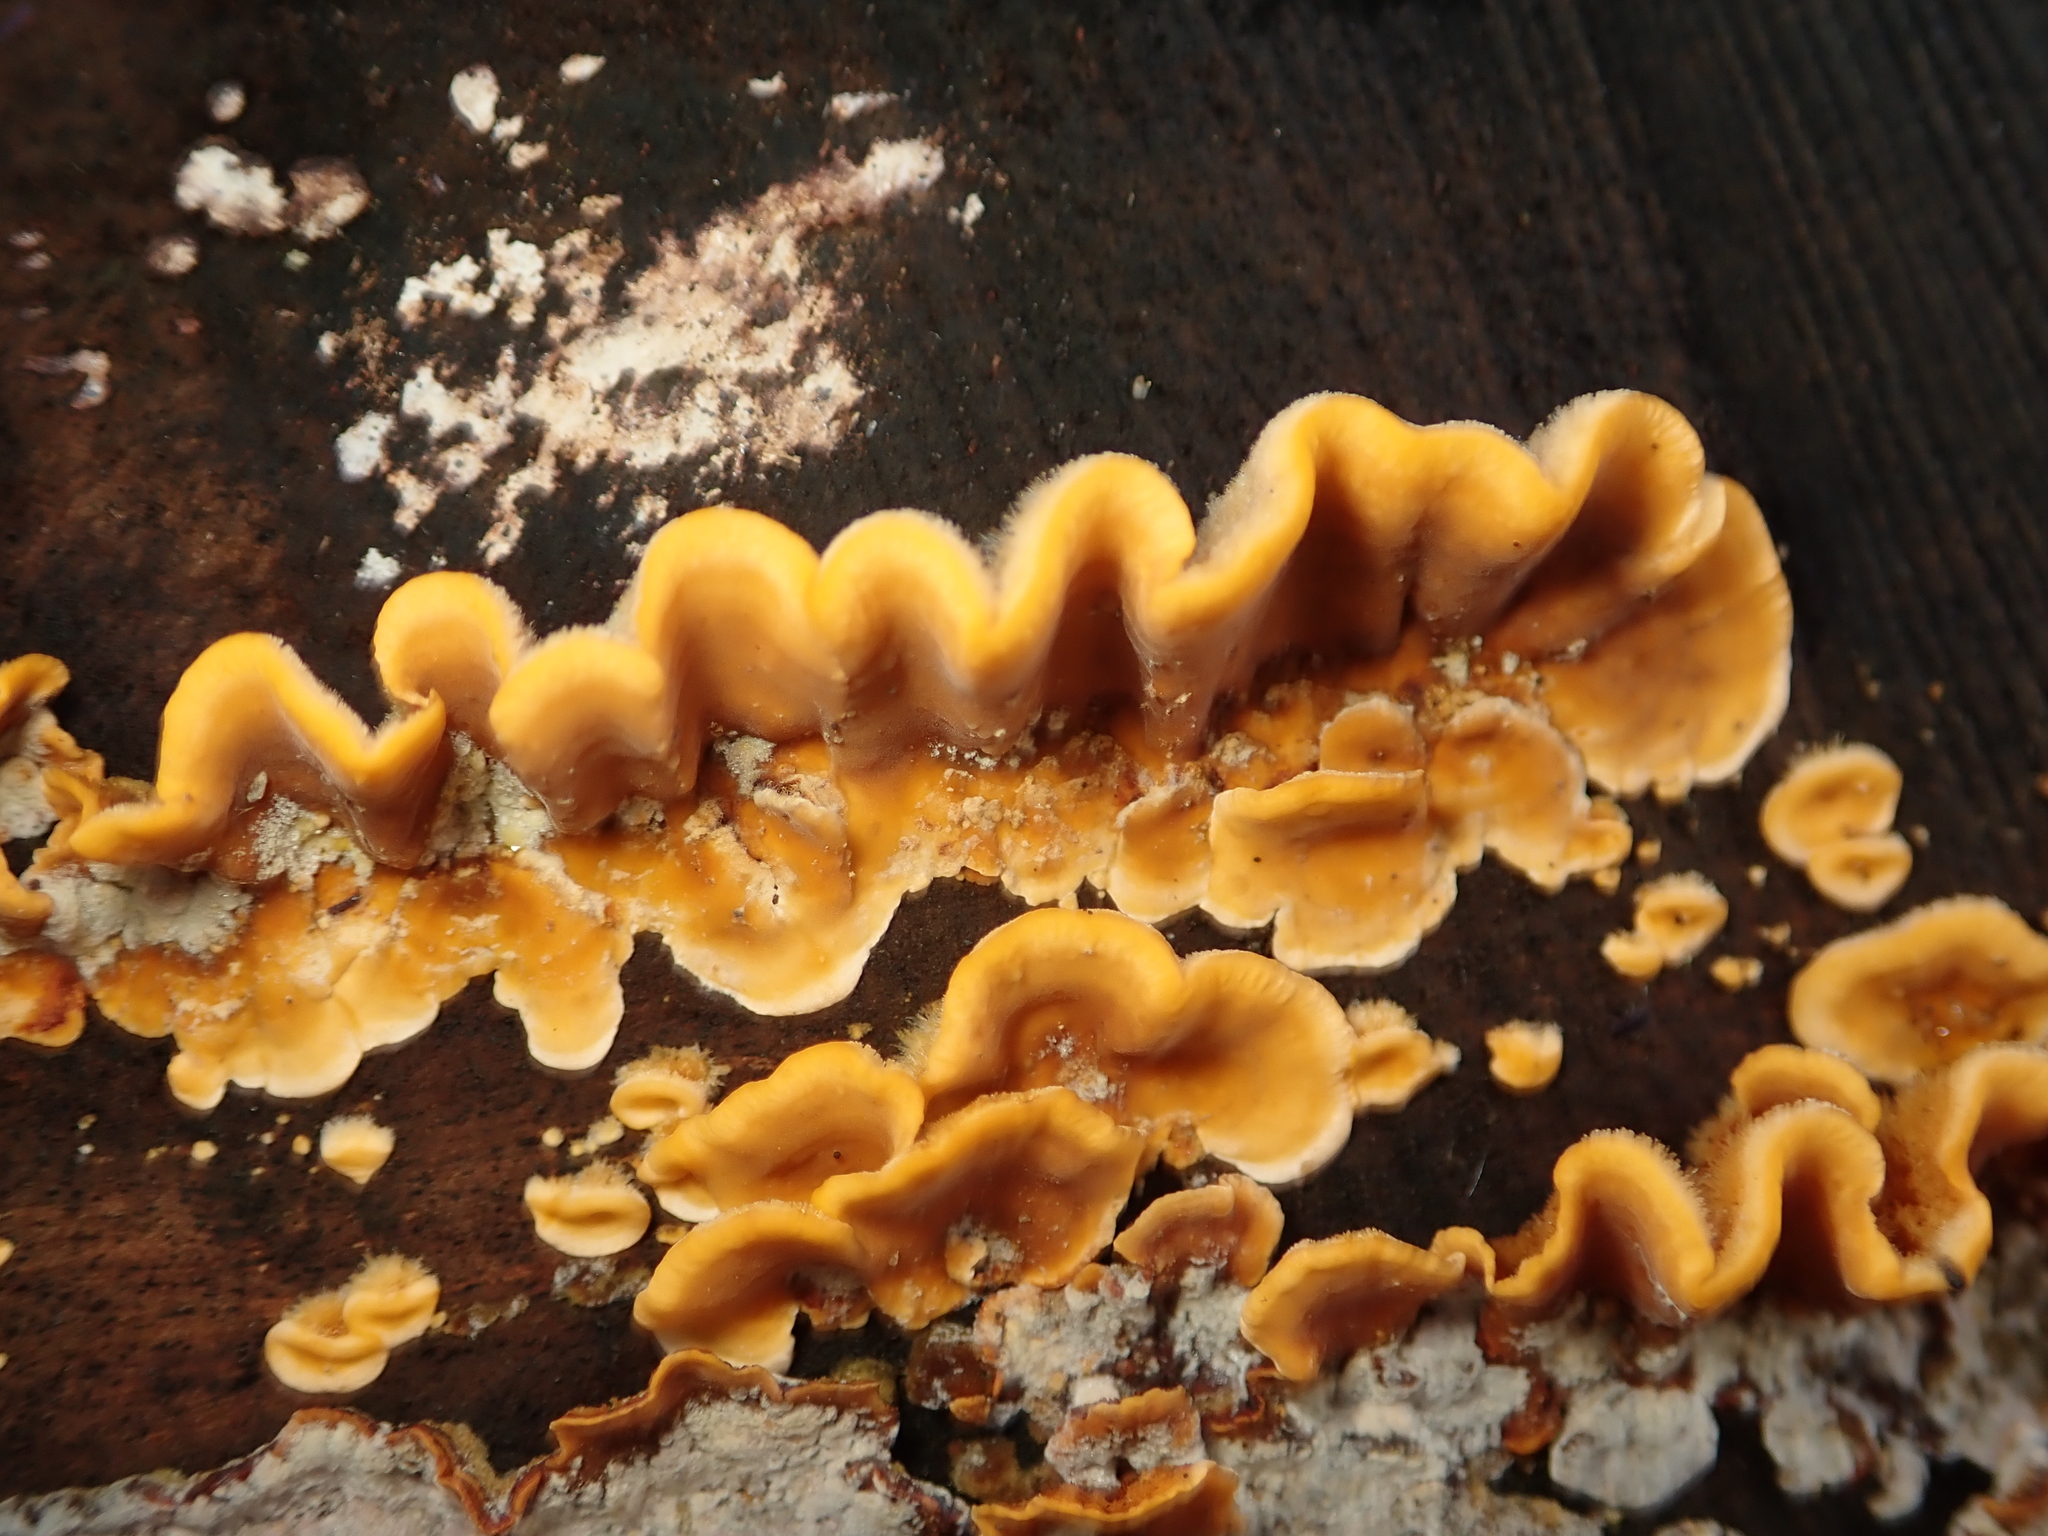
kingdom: Fungi
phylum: Basidiomycota
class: Agaricomycetes
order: Russulales
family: Stereaceae
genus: Stereum
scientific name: Stereum hirsutum
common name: Hairy curtain crust
